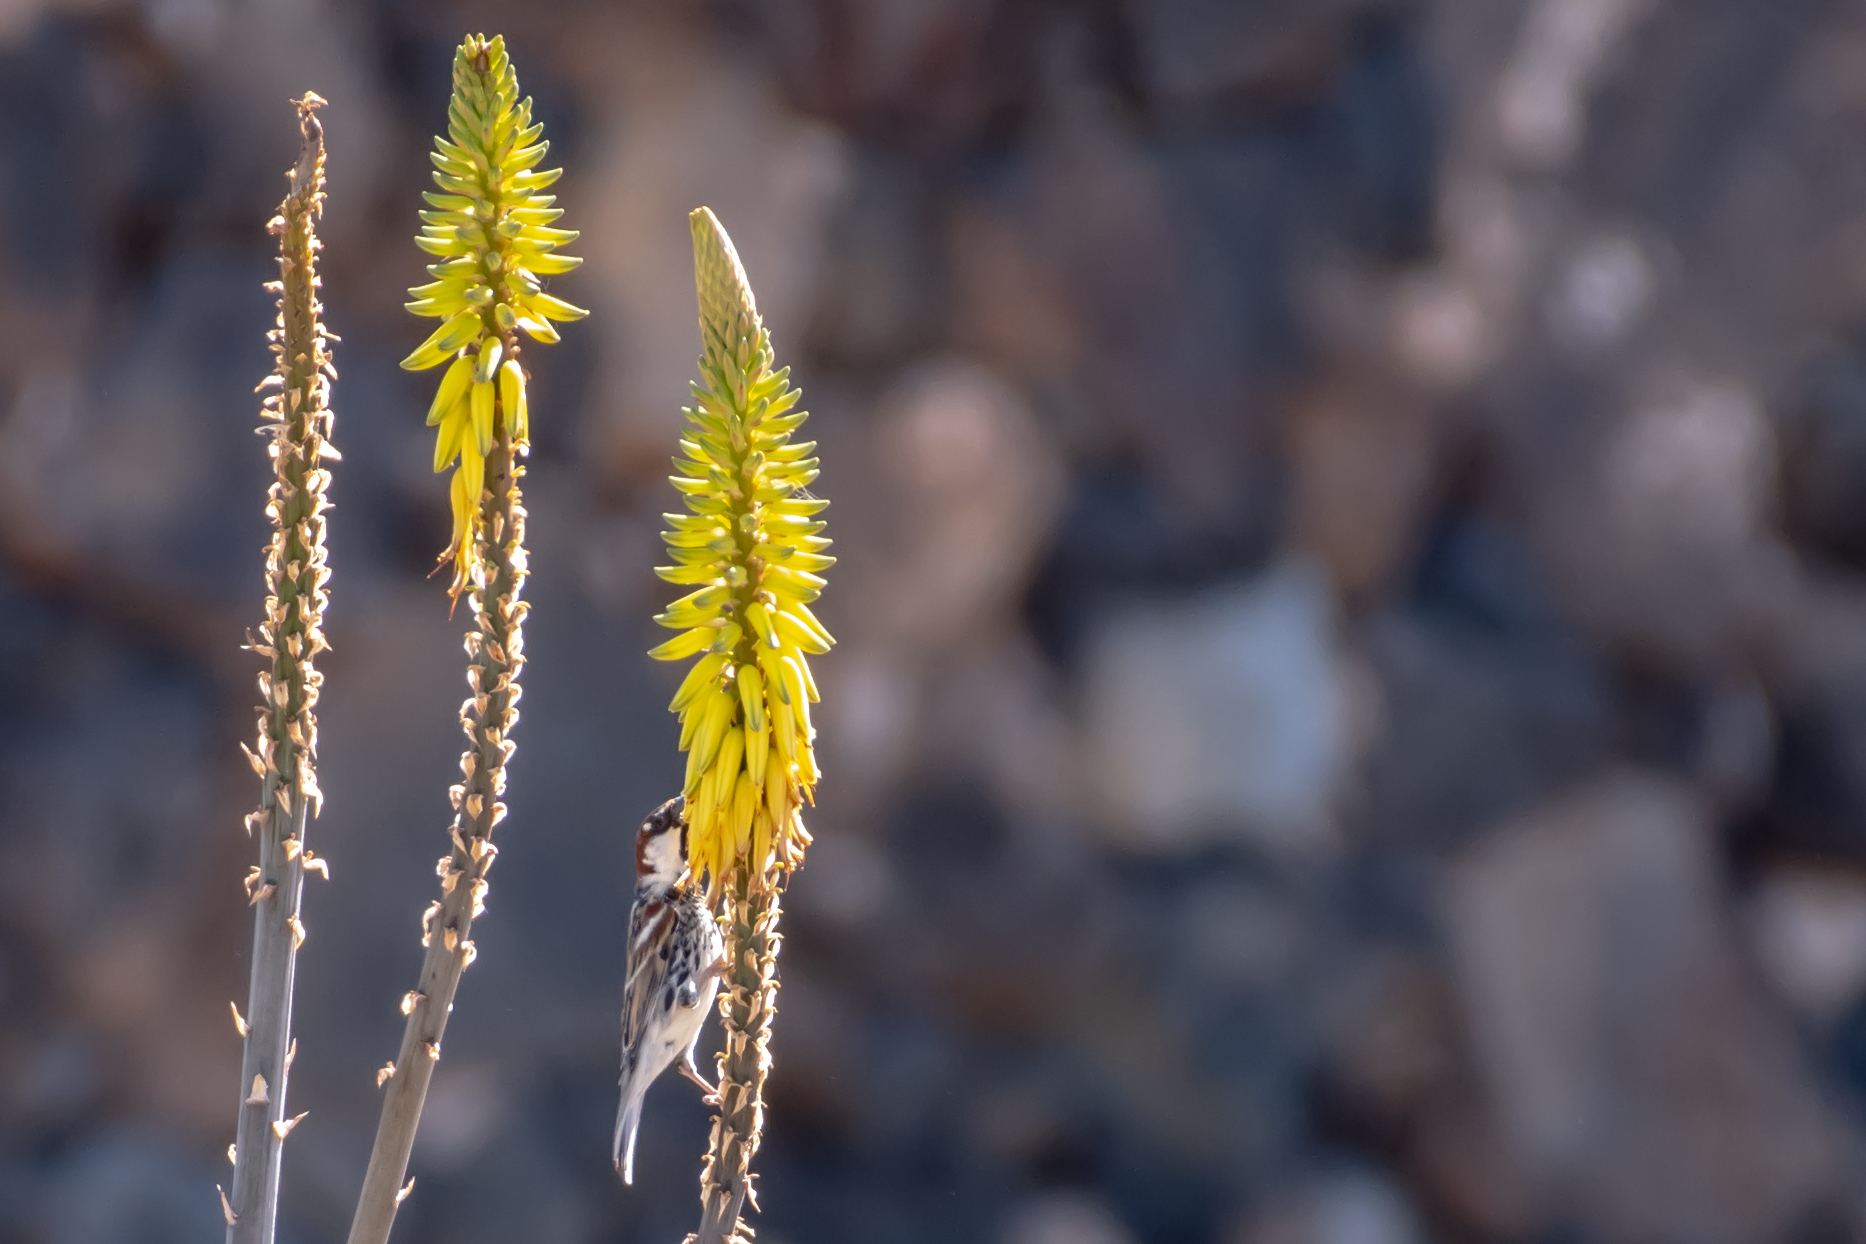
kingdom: Animalia
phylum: Chordata
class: Aves
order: Passeriformes
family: Passeridae
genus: Passer
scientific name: Passer hispaniolensis
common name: Spanish sparrow
